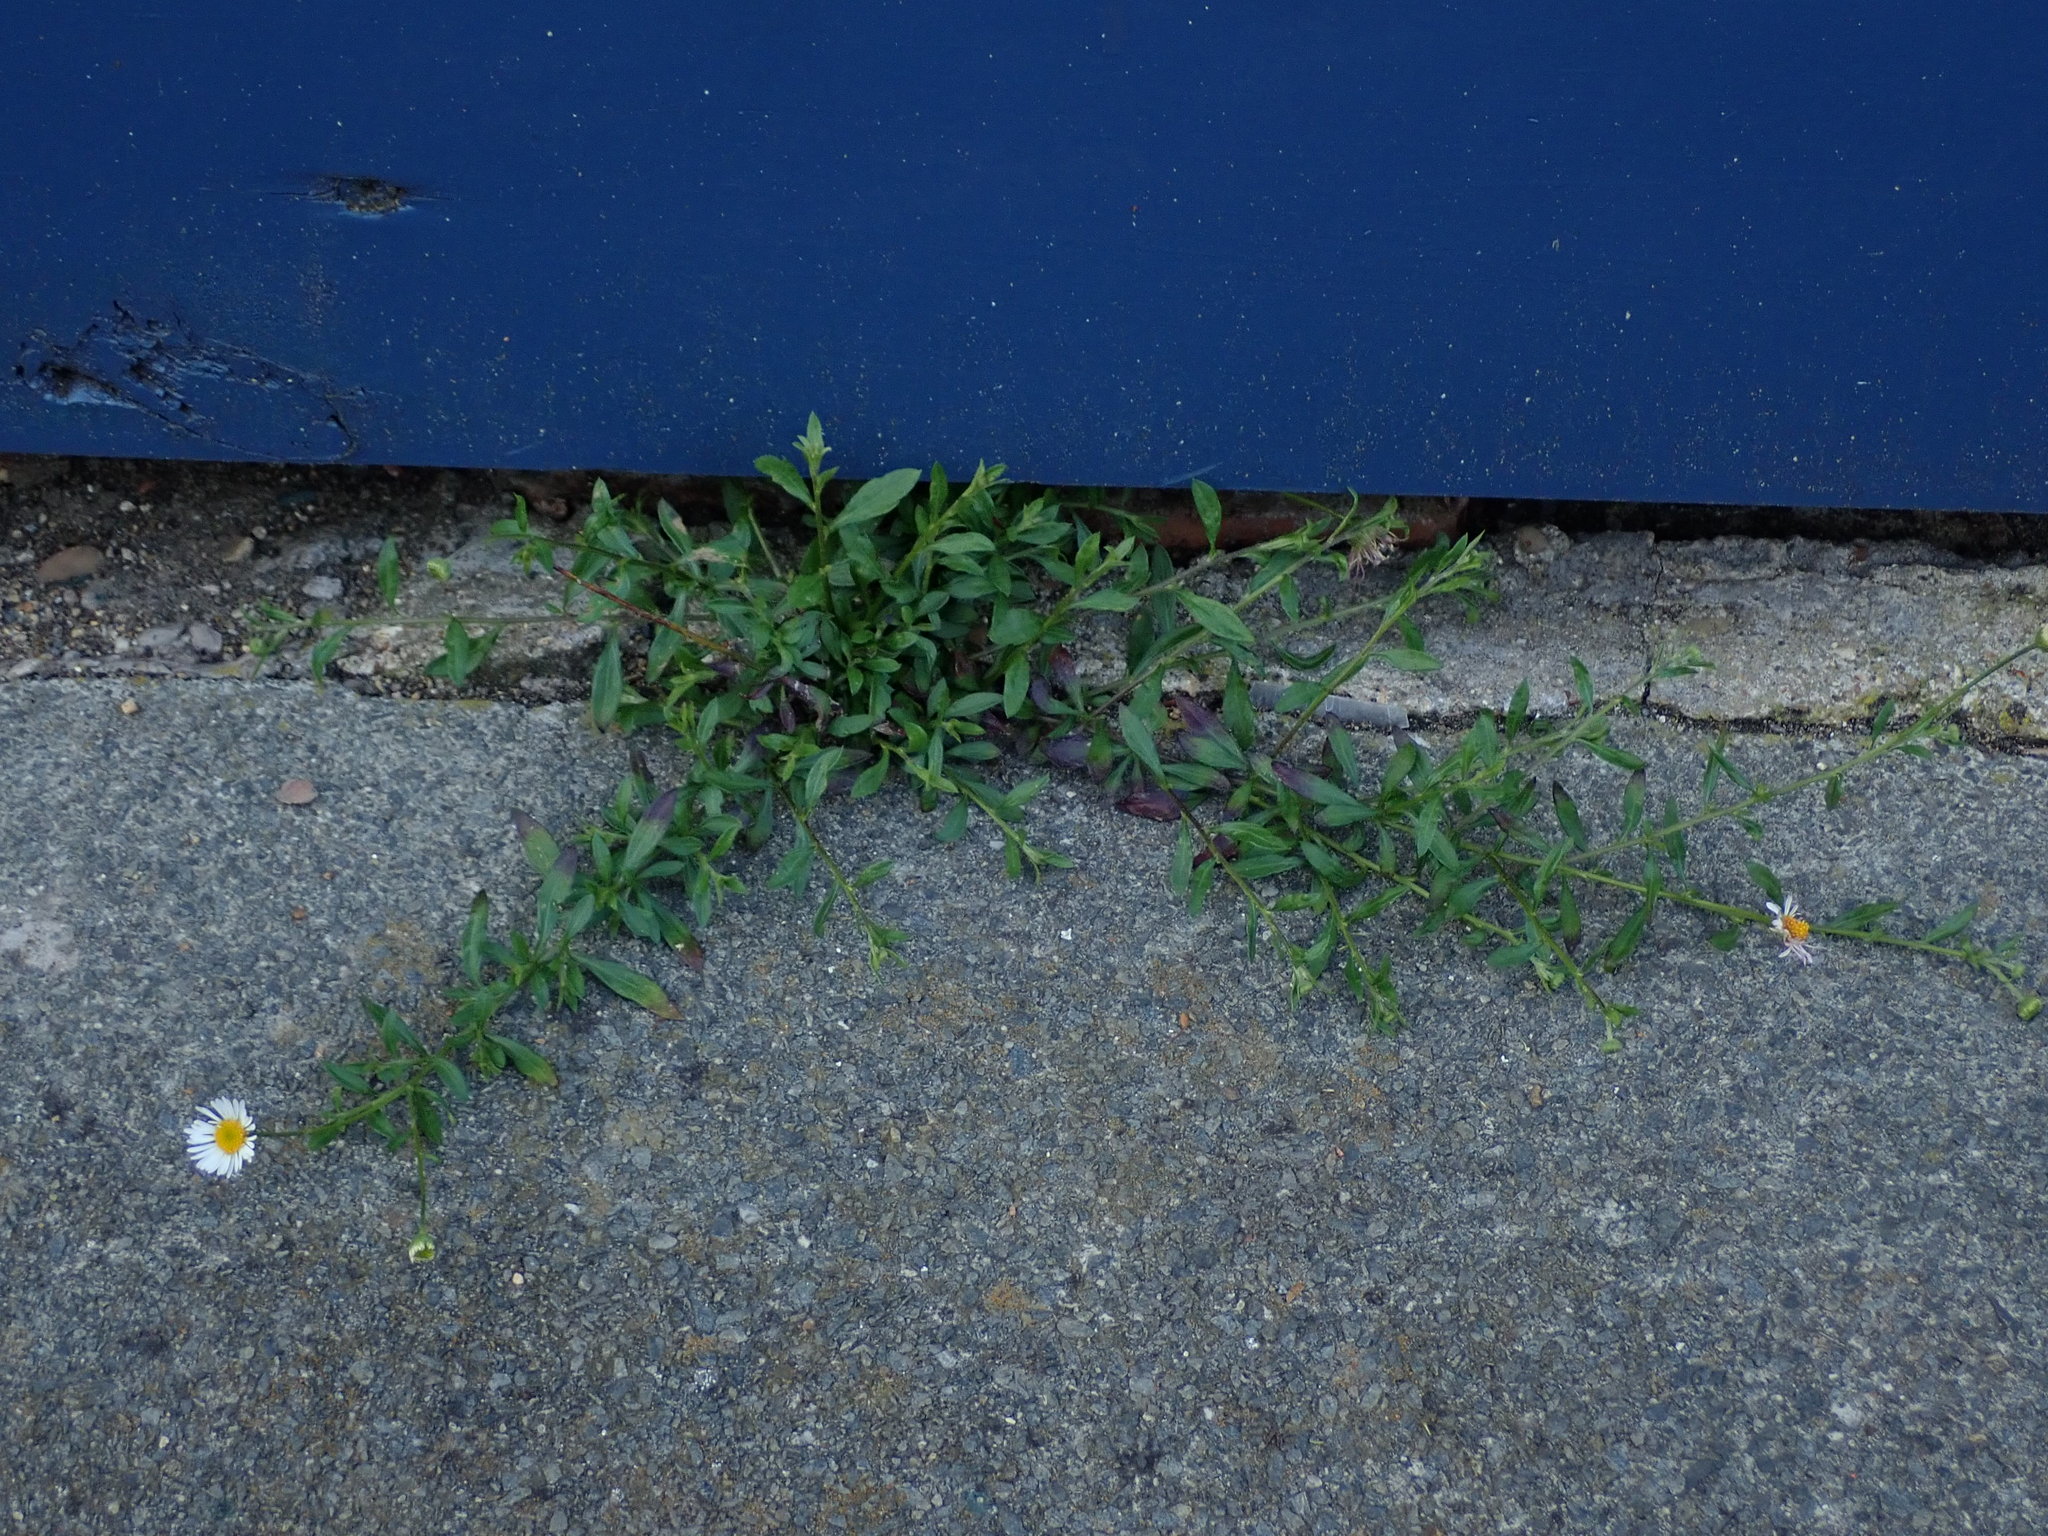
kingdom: Plantae
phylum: Tracheophyta
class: Magnoliopsida
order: Asterales
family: Asteraceae
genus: Erigeron
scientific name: Erigeron karvinskianus
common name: Mexican fleabane
